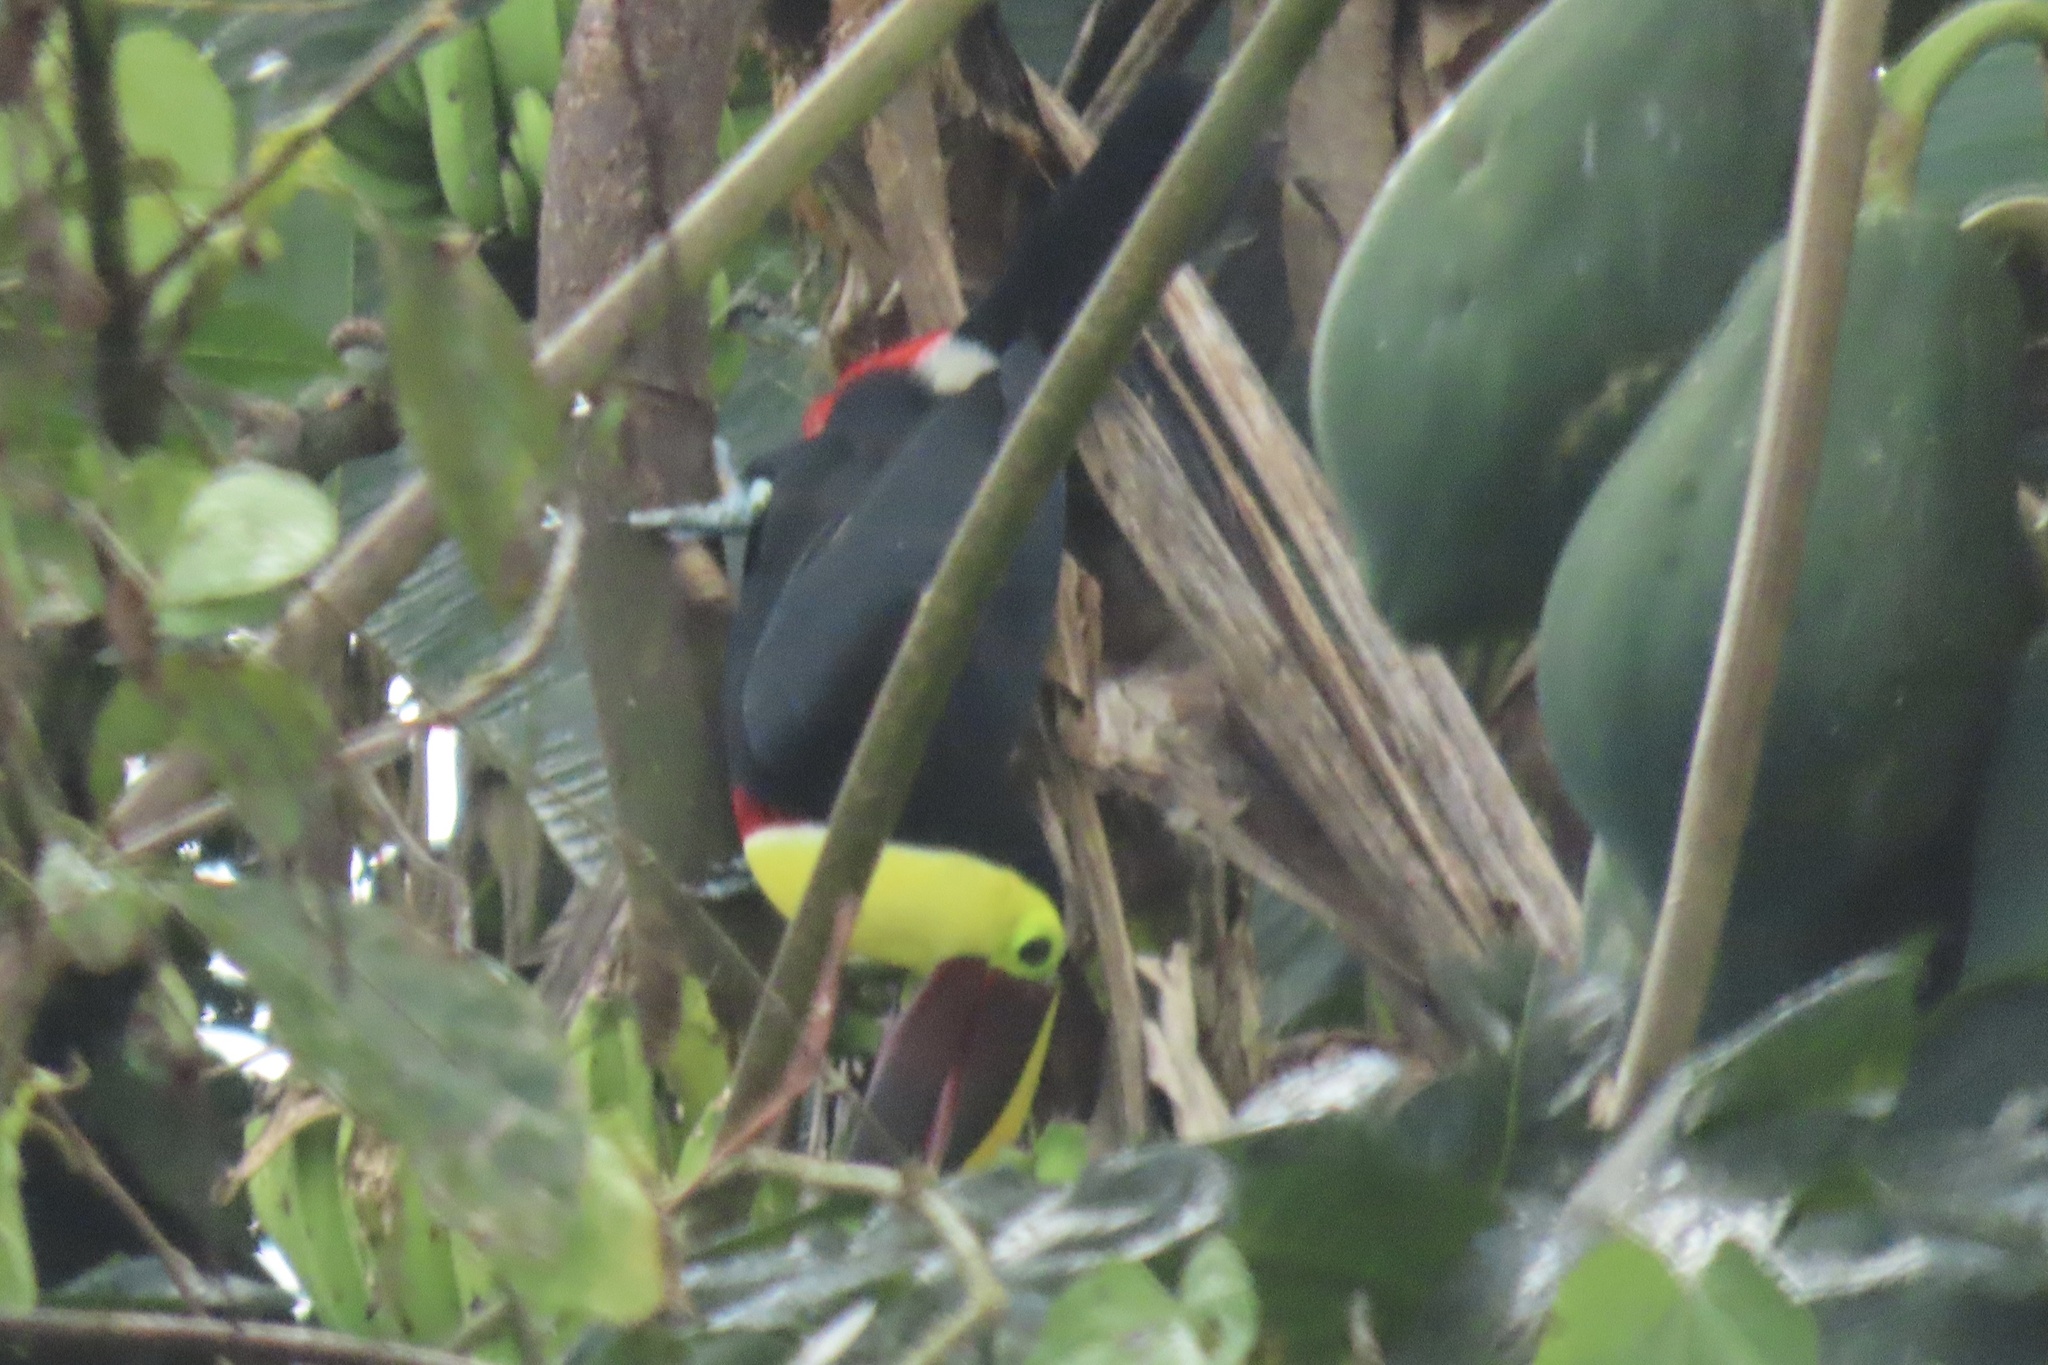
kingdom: Animalia
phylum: Chordata
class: Aves
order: Piciformes
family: Ramphastidae
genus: Ramphastos
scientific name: Ramphastos ambiguus
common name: Yellow-throated toucan
